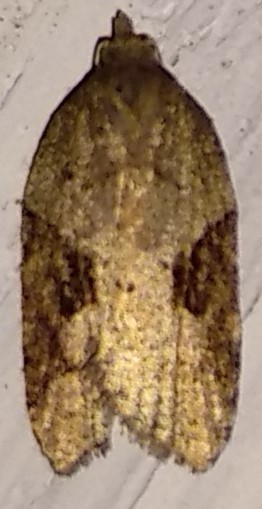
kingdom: Animalia
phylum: Arthropoda
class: Insecta
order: Lepidoptera
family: Tortricidae
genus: Acleris
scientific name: Acleris macdunnoughi
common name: Macdunnough's acleris
